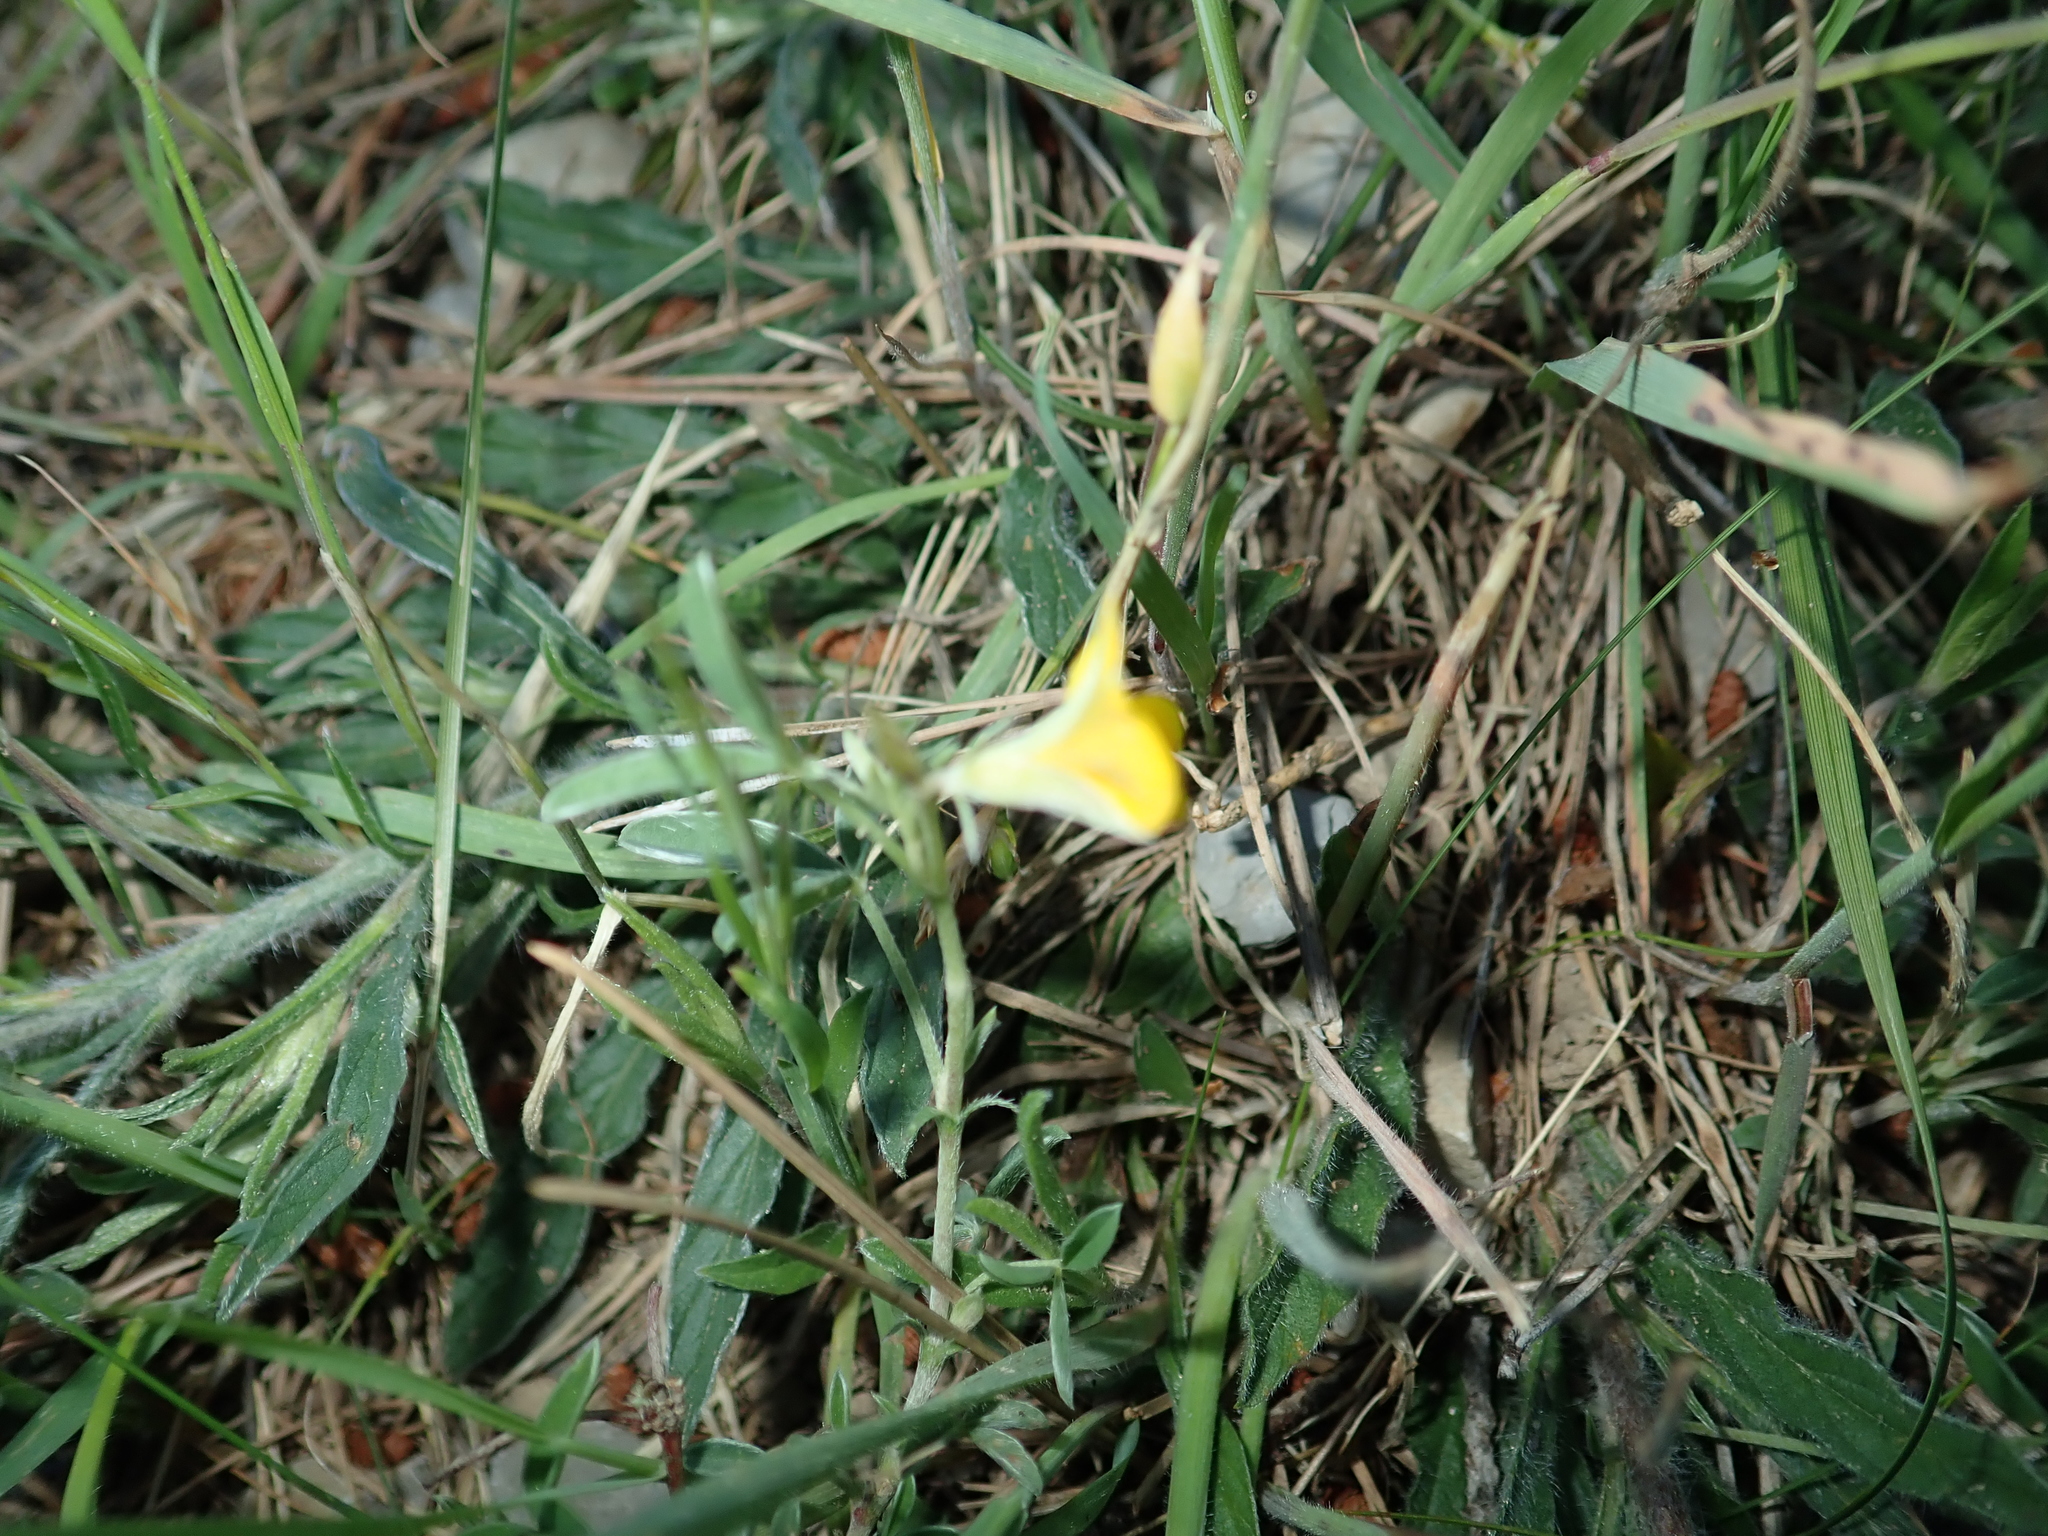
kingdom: Plantae
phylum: Tracheophyta
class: Magnoliopsida
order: Fabales
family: Fabaceae
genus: Argyrolobium
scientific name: Argyrolobium zanonii
